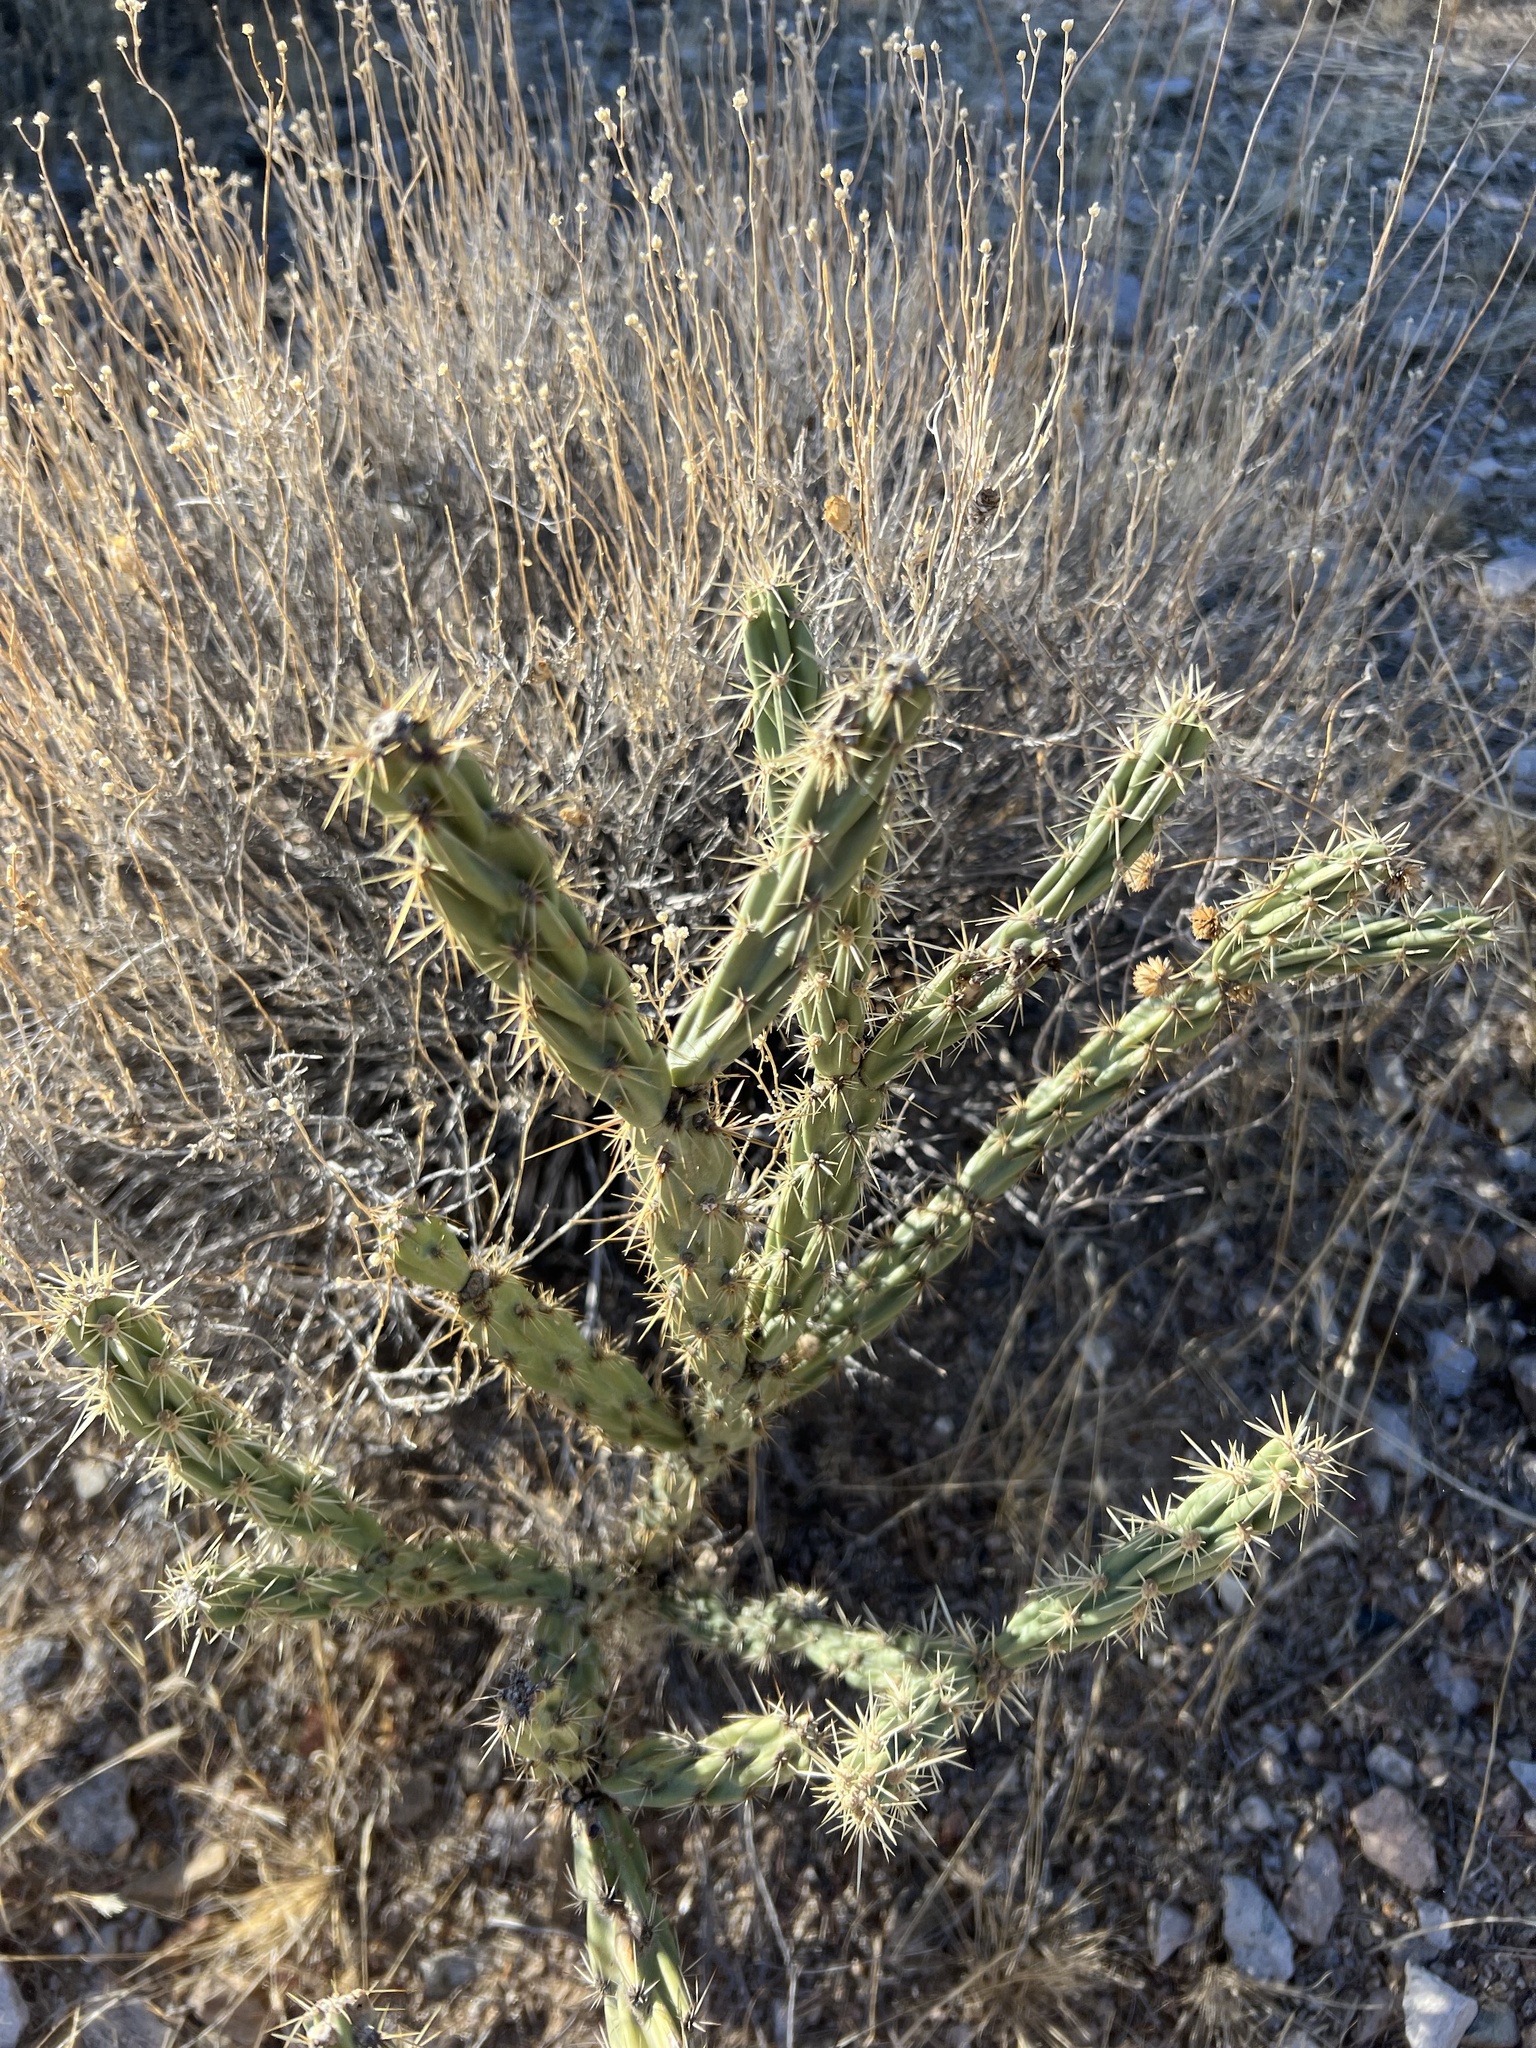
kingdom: Plantae
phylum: Tracheophyta
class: Magnoliopsida
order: Caryophyllales
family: Cactaceae
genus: Cylindropuntia
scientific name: Cylindropuntia acanthocarpa
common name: Buckhorn cholla
